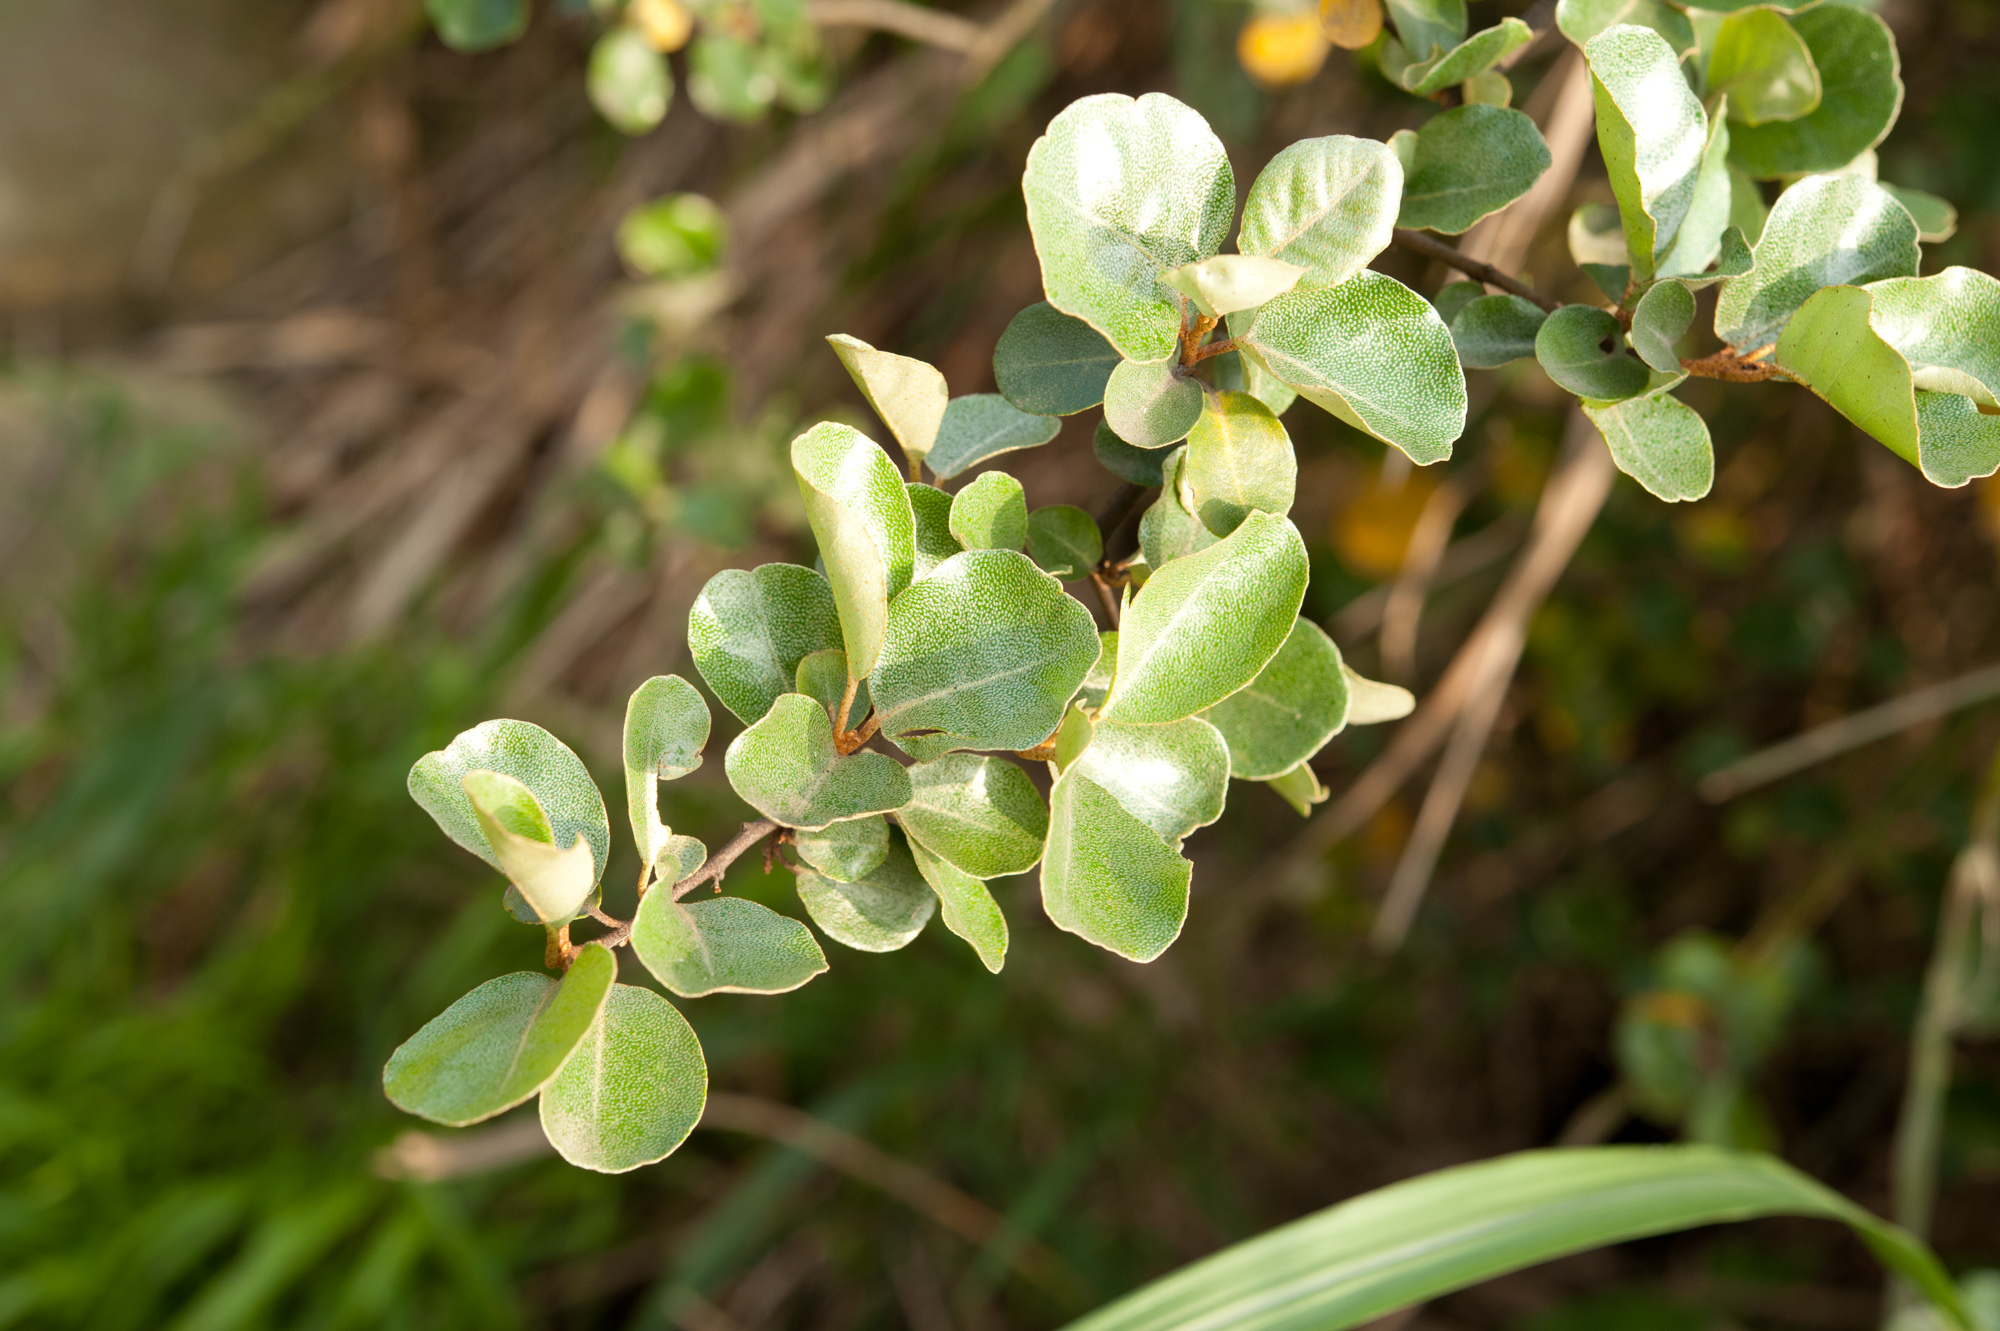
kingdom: Plantae
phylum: Tracheophyta
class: Magnoliopsida
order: Rosales
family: Elaeagnaceae
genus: Elaeagnus
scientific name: Elaeagnus oldhamii
